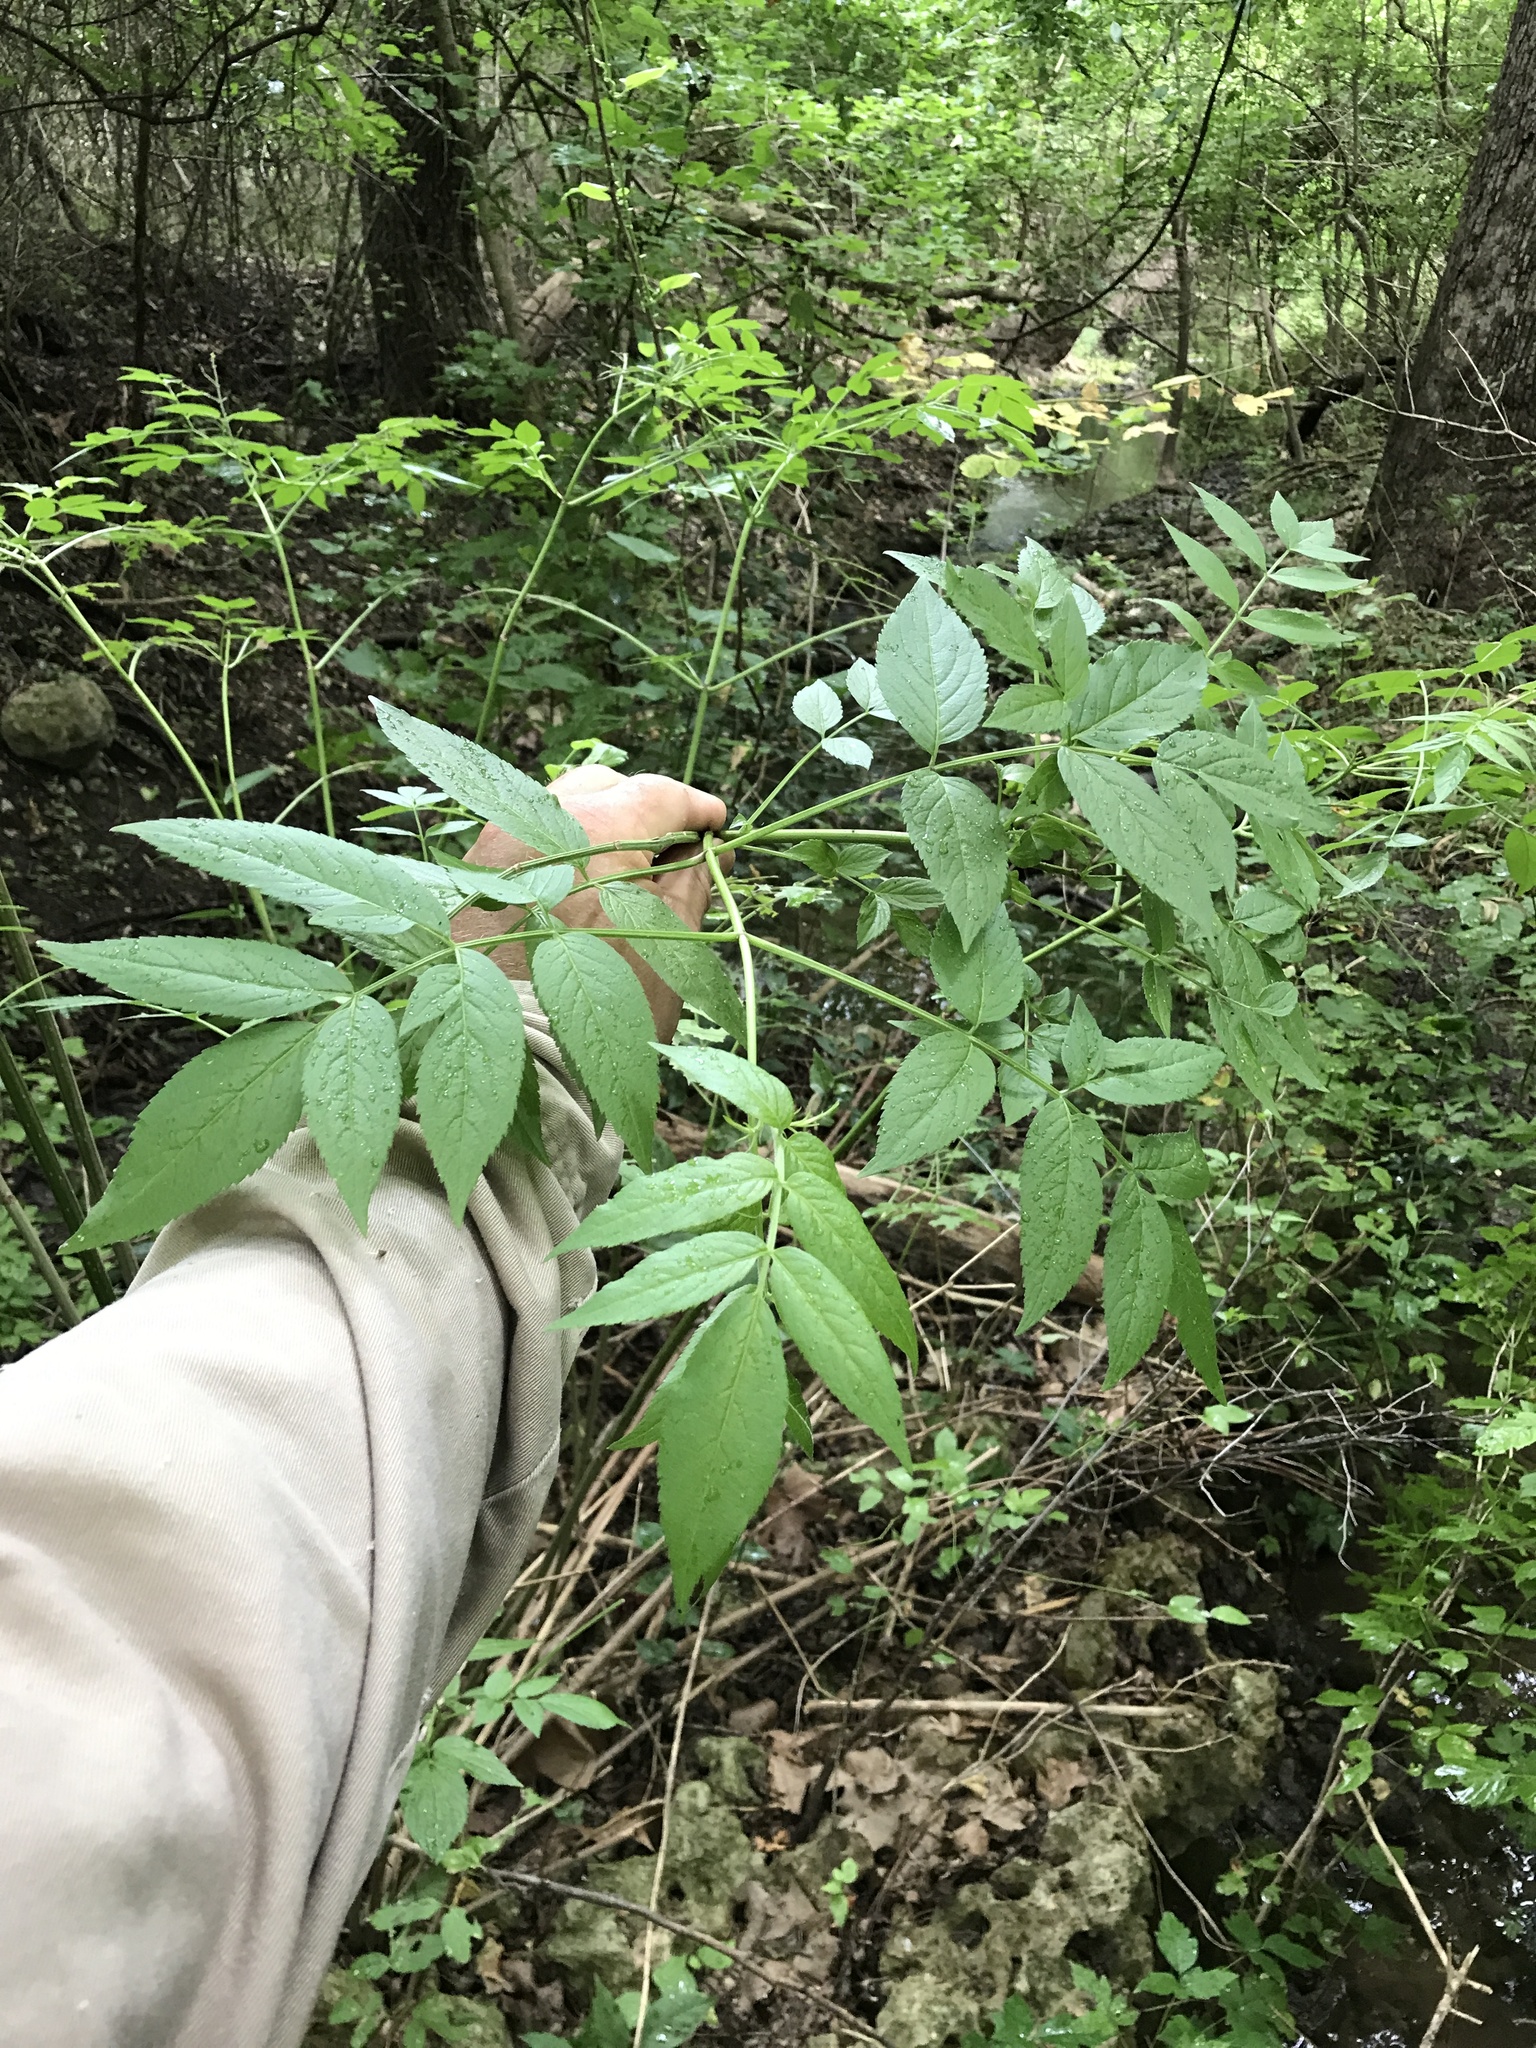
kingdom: Plantae
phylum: Tracheophyta
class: Magnoliopsida
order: Dipsacales
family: Viburnaceae
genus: Sambucus
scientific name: Sambucus canadensis
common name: American elder
